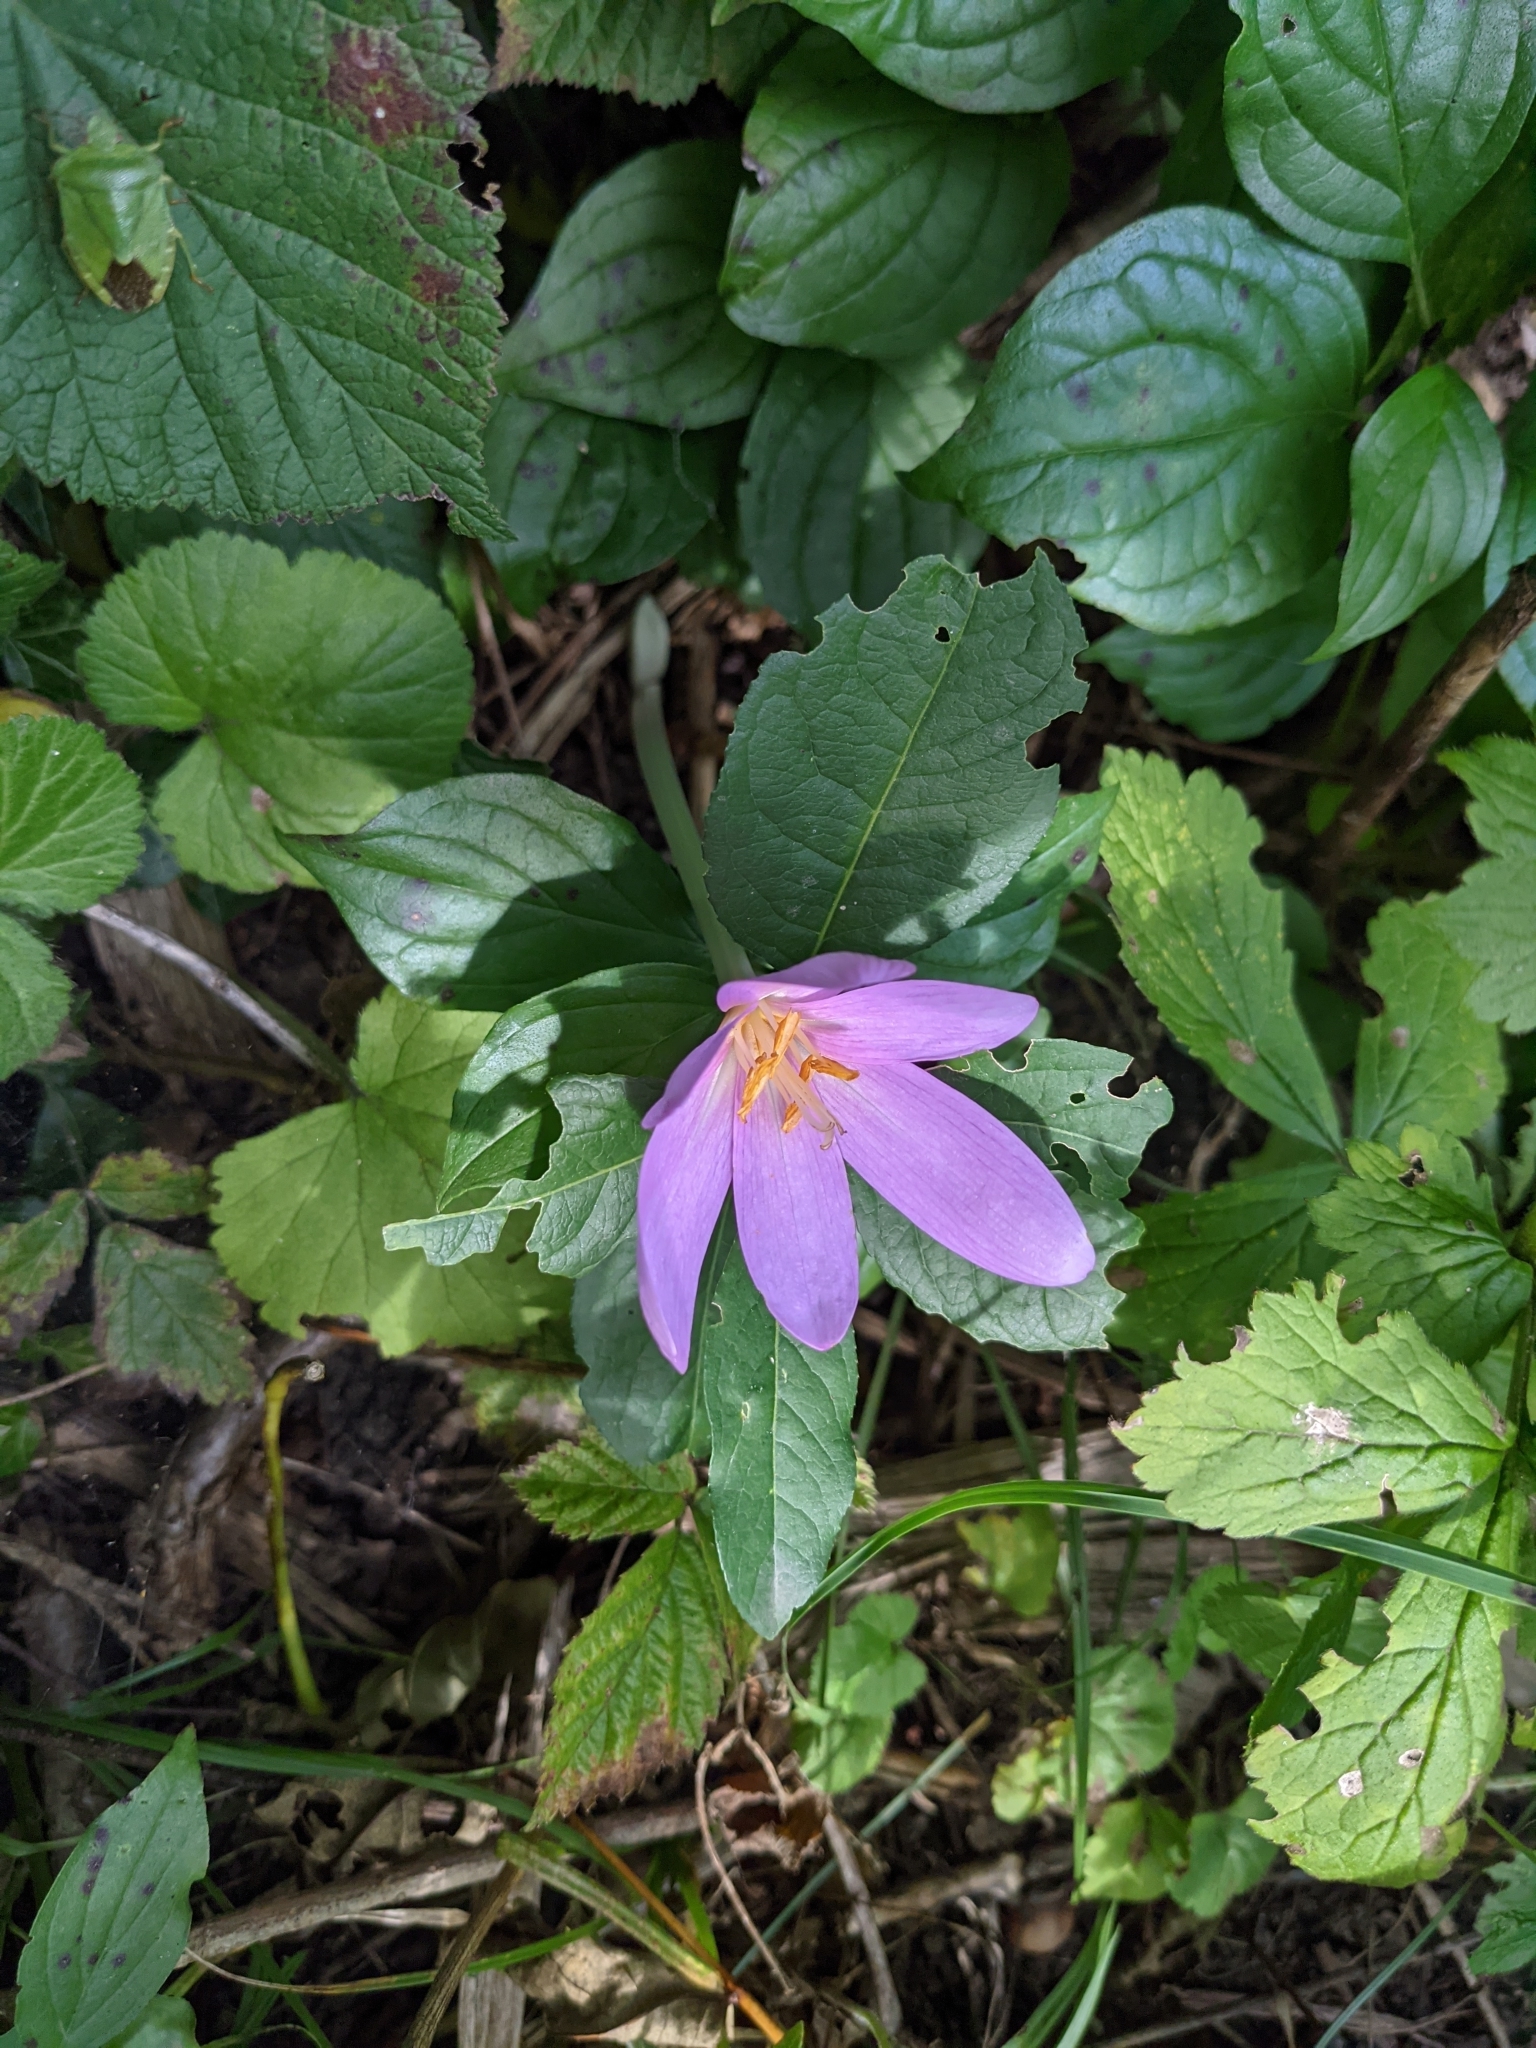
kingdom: Plantae
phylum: Tracheophyta
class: Liliopsida
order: Liliales
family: Colchicaceae
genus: Colchicum
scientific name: Colchicum autumnale
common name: Autumn crocus
